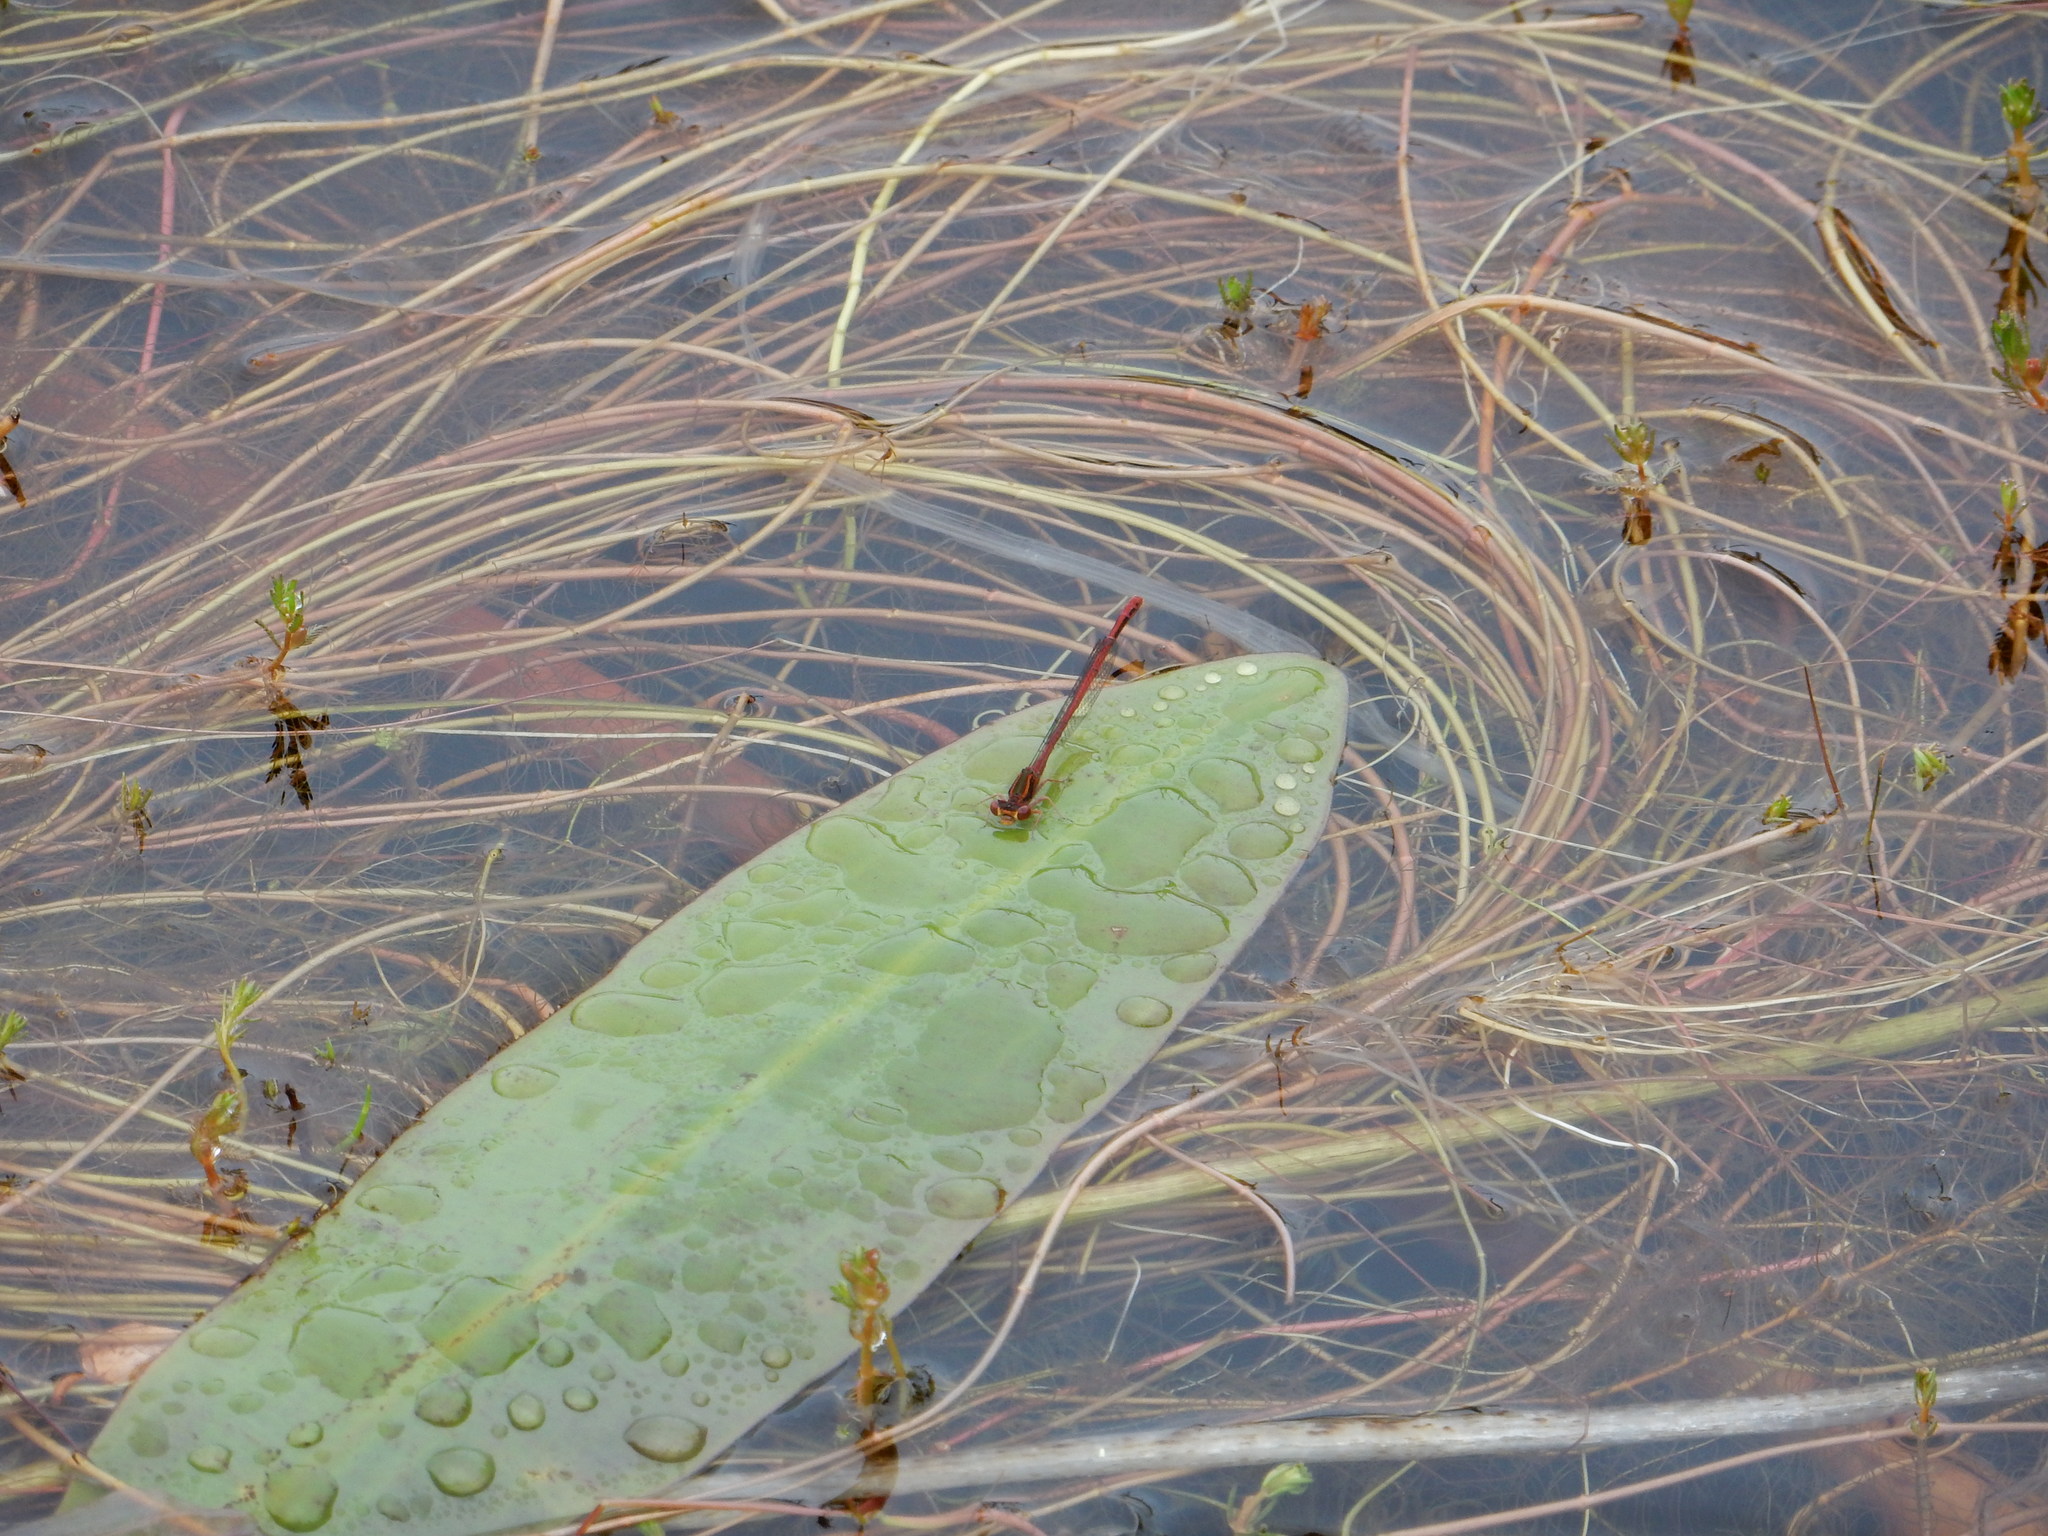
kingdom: Animalia
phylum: Arthropoda
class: Insecta
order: Odonata
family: Coenagrionidae
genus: Xanthocnemis
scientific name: Xanthocnemis zealandica
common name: Common redcoat damselfly
